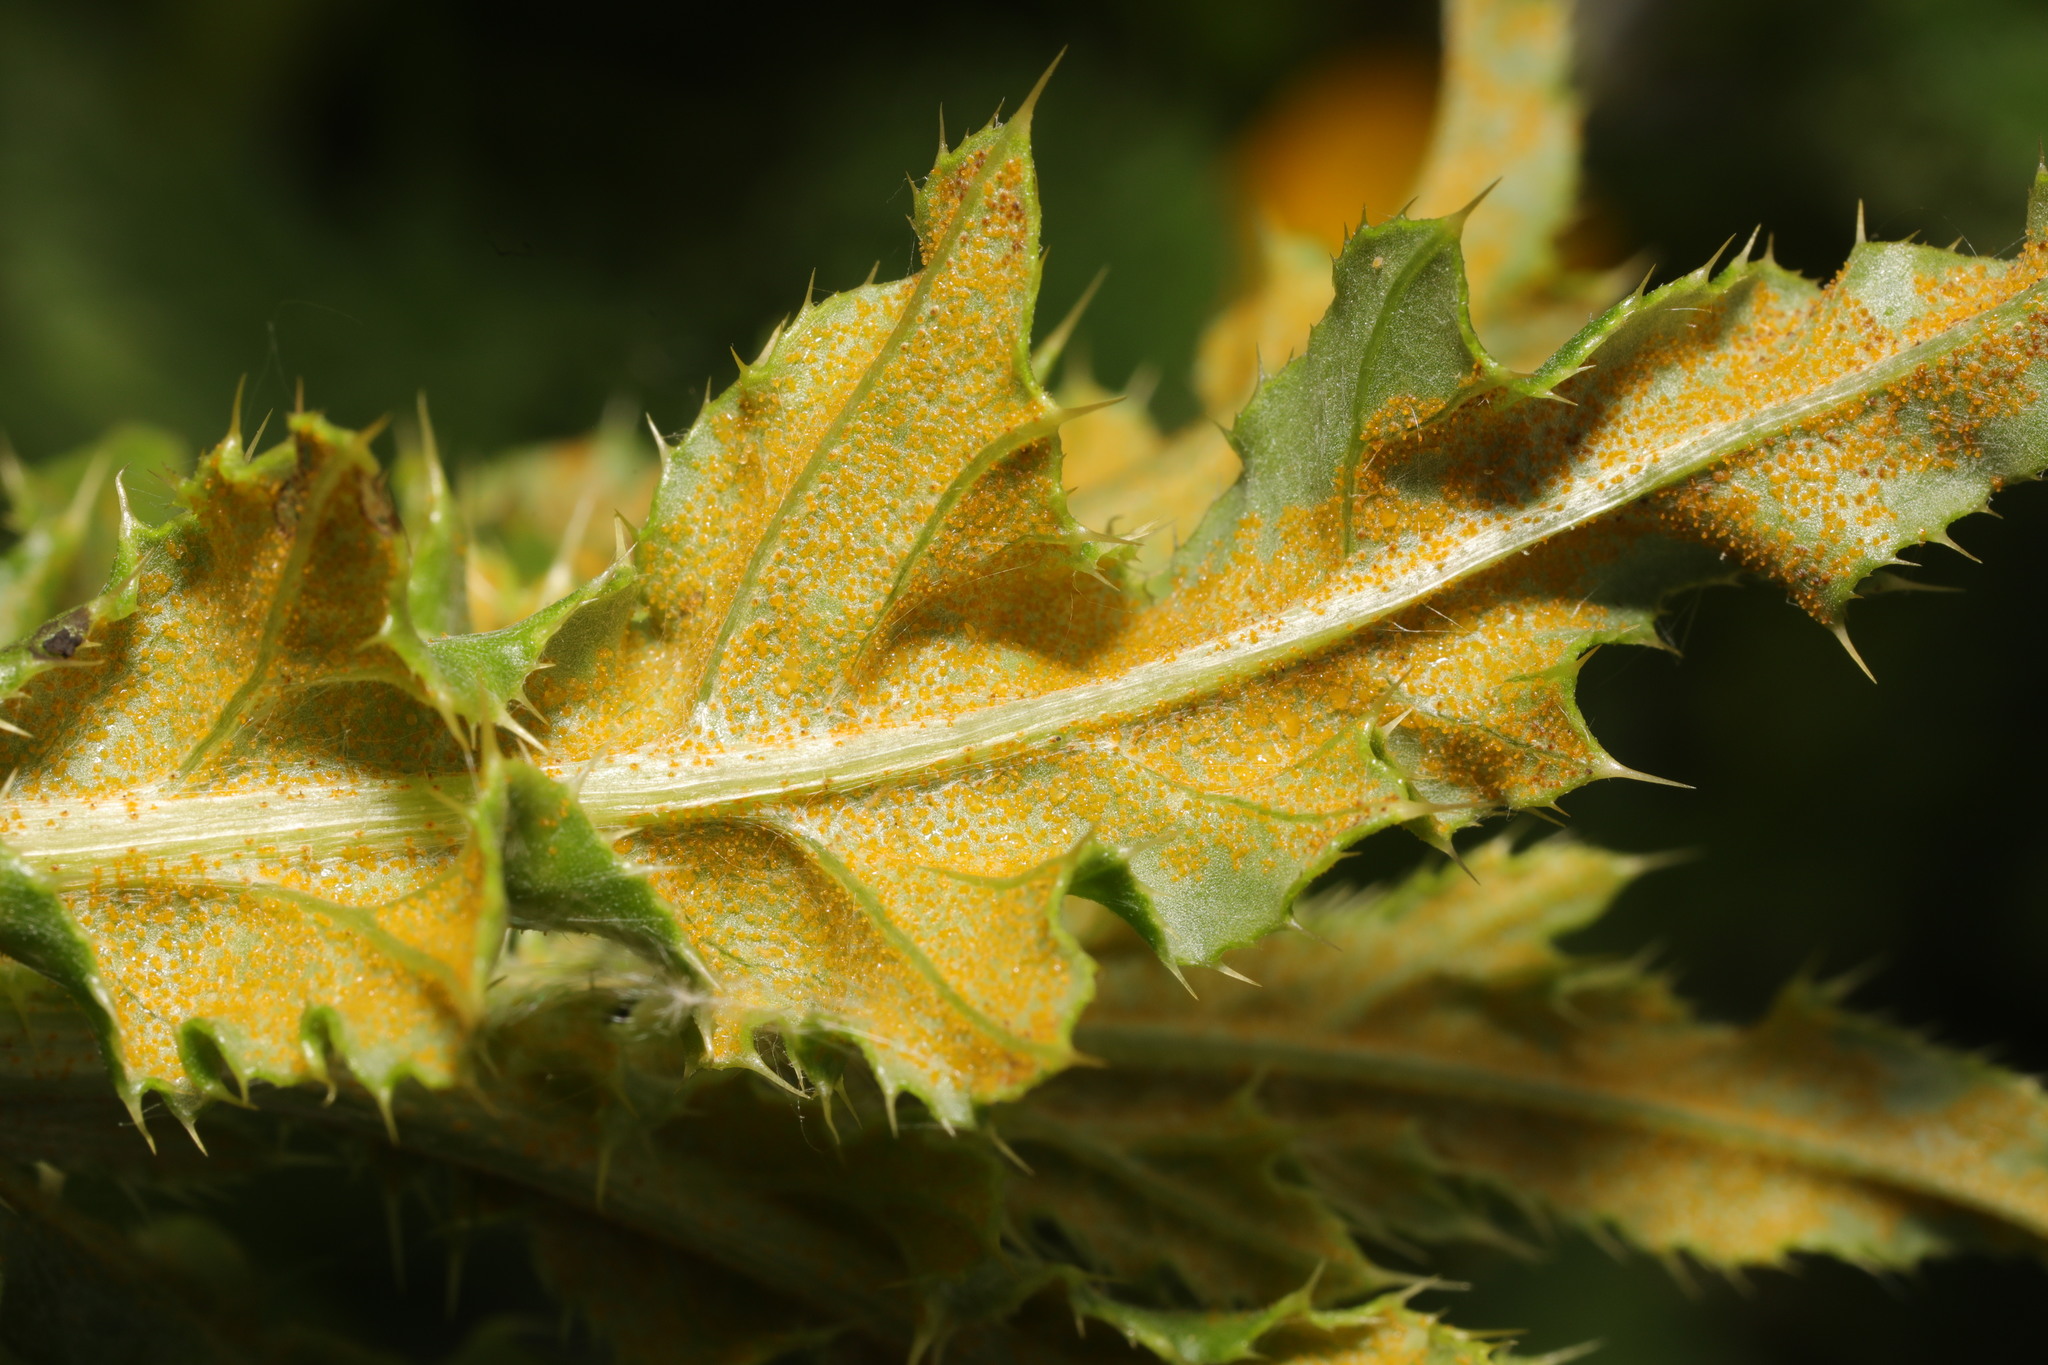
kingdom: Fungi
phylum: Basidiomycota
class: Pucciniomycetes
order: Pucciniales
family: Pucciniaceae
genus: Puccinia
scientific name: Puccinia suaveolens
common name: Thistle rust
